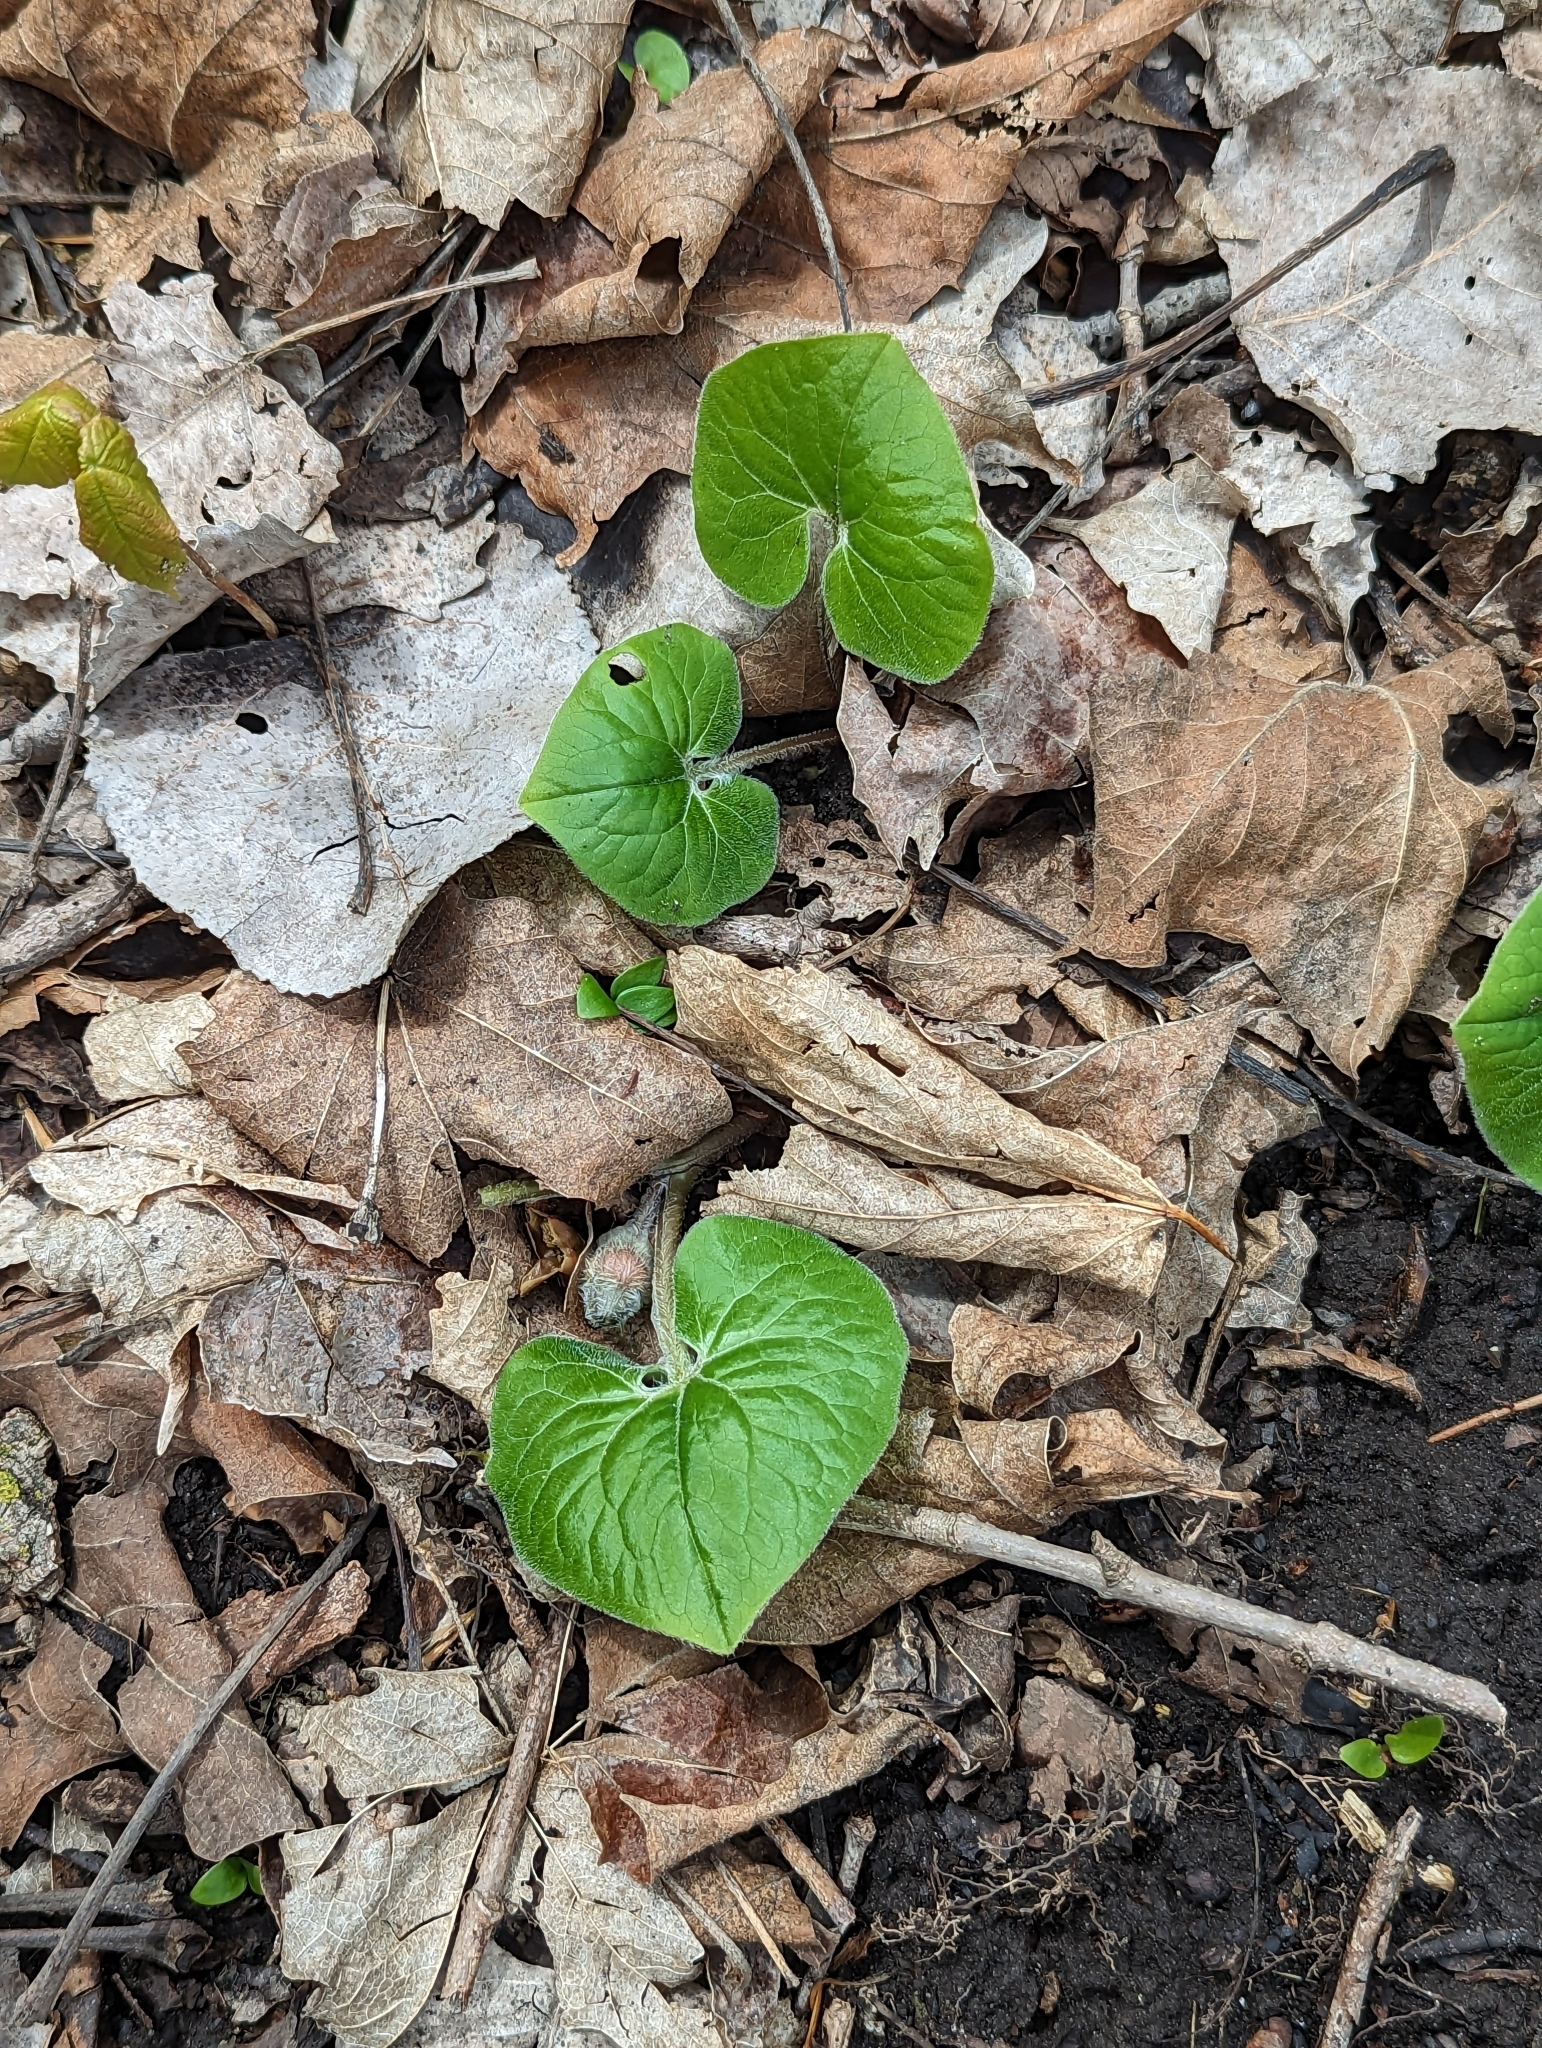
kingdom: Plantae
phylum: Tracheophyta
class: Magnoliopsida
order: Piperales
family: Aristolochiaceae
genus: Asarum
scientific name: Asarum canadense
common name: Wild ginger
